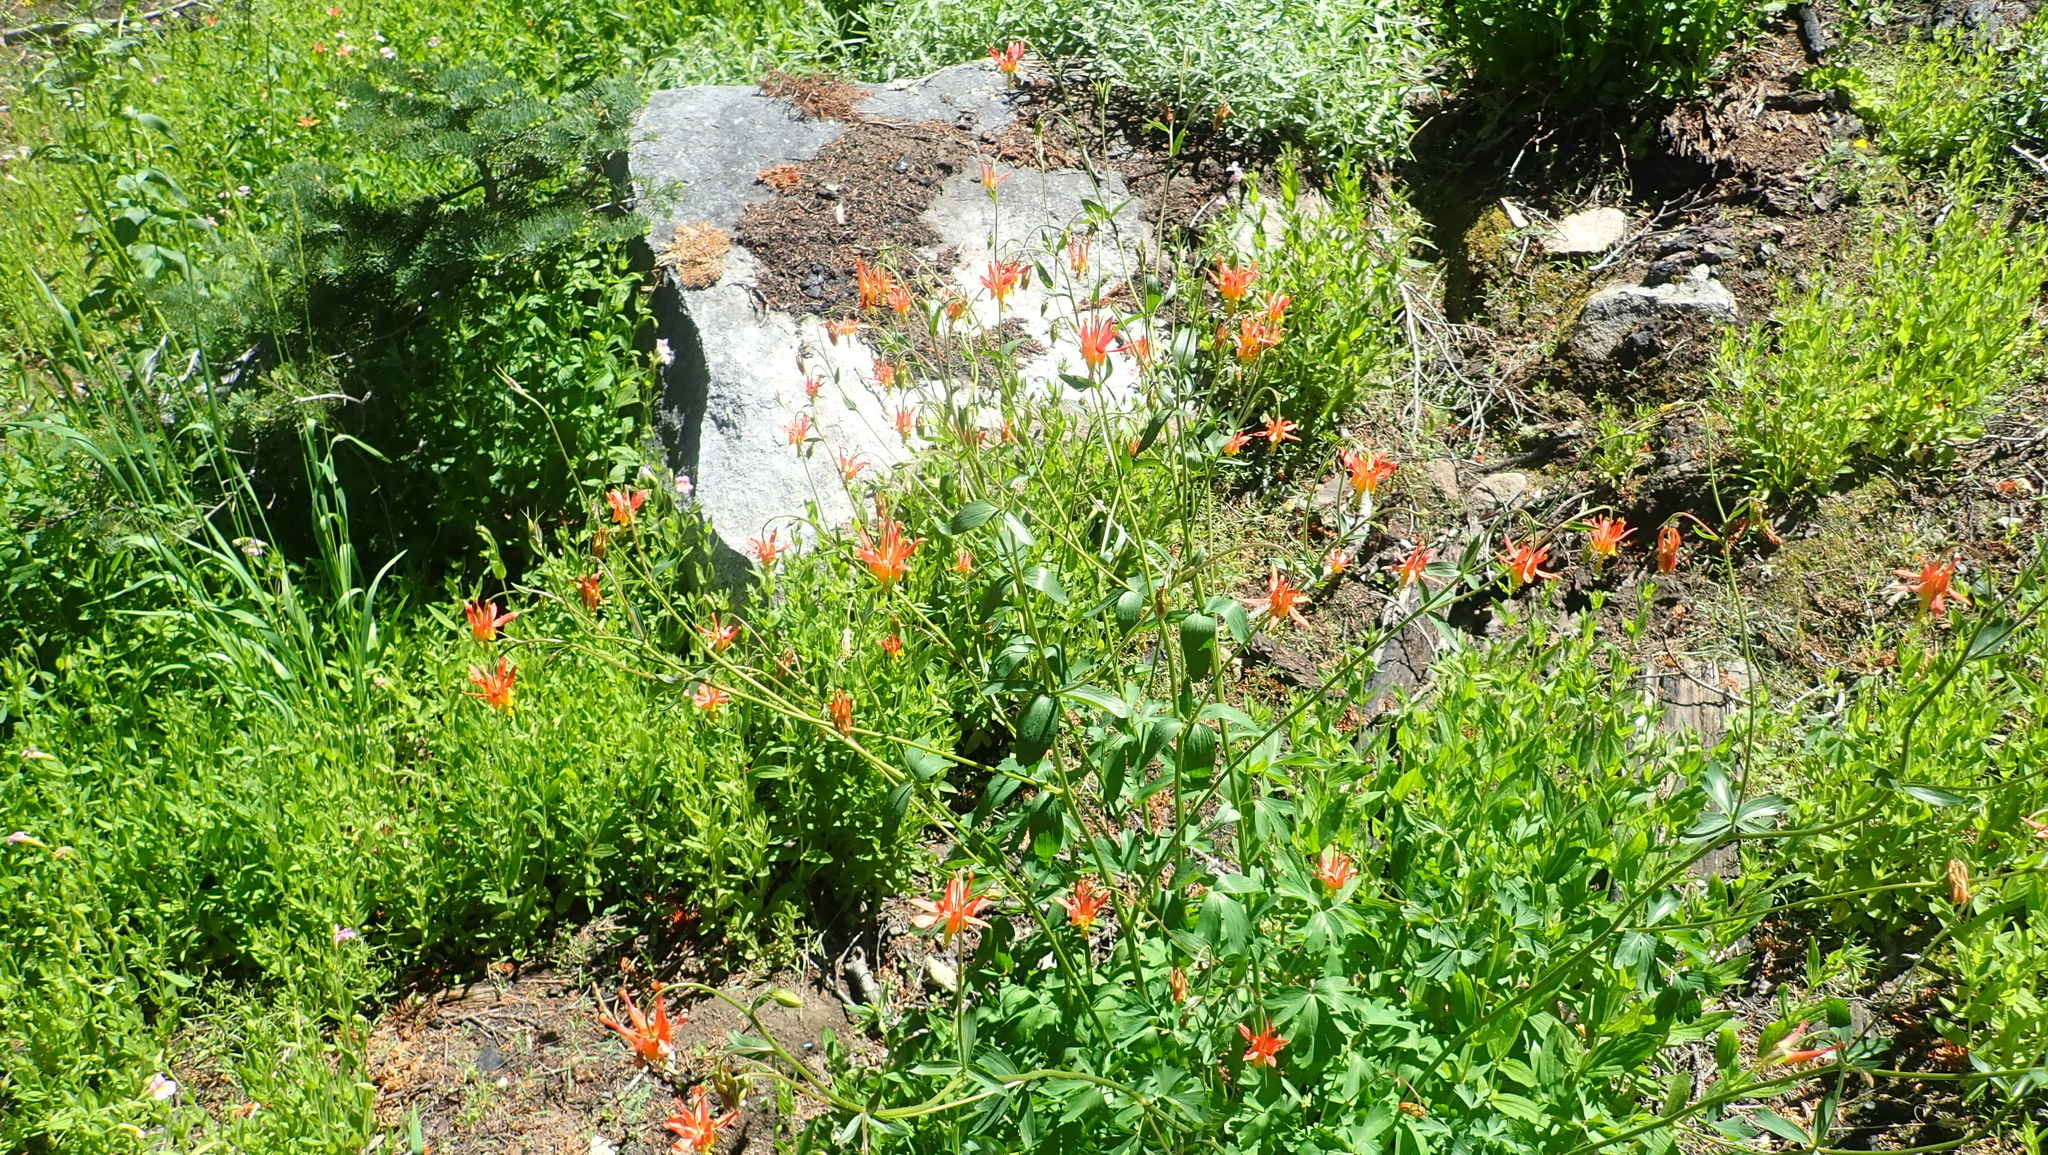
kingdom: Plantae
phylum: Tracheophyta
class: Magnoliopsida
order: Ranunculales
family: Ranunculaceae
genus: Aquilegia
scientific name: Aquilegia formosa
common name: Sitka columbine
